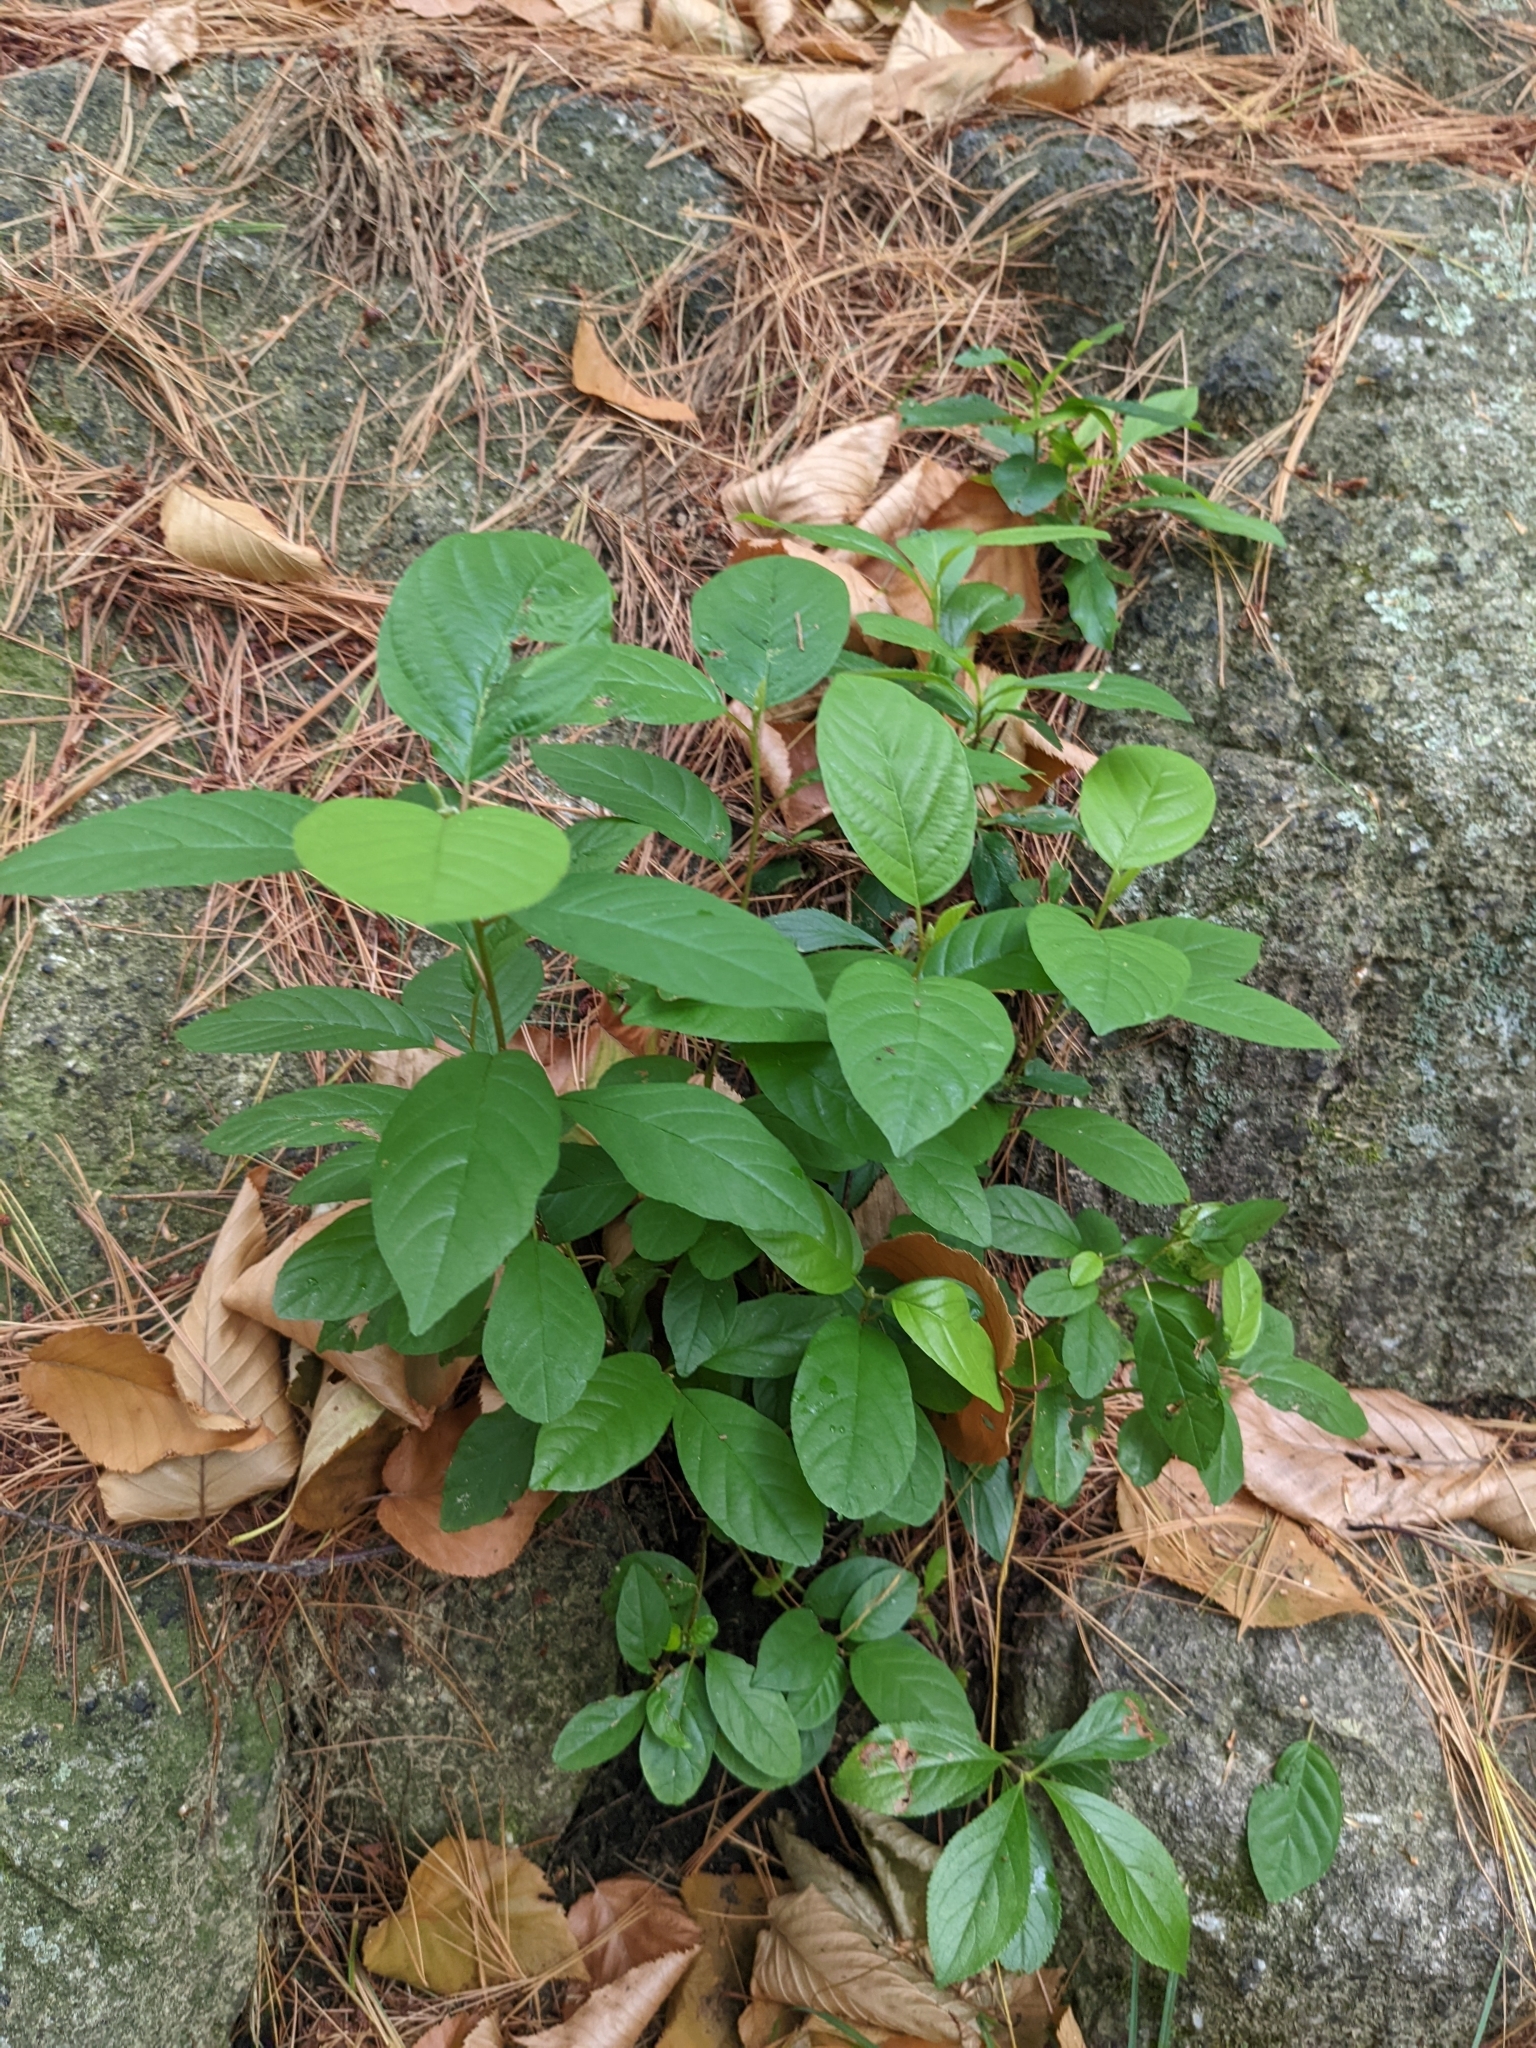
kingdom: Plantae
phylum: Tracheophyta
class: Magnoliopsida
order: Rosales
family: Rhamnaceae
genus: Frangula
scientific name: Frangula alnus
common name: Alder buckthorn
